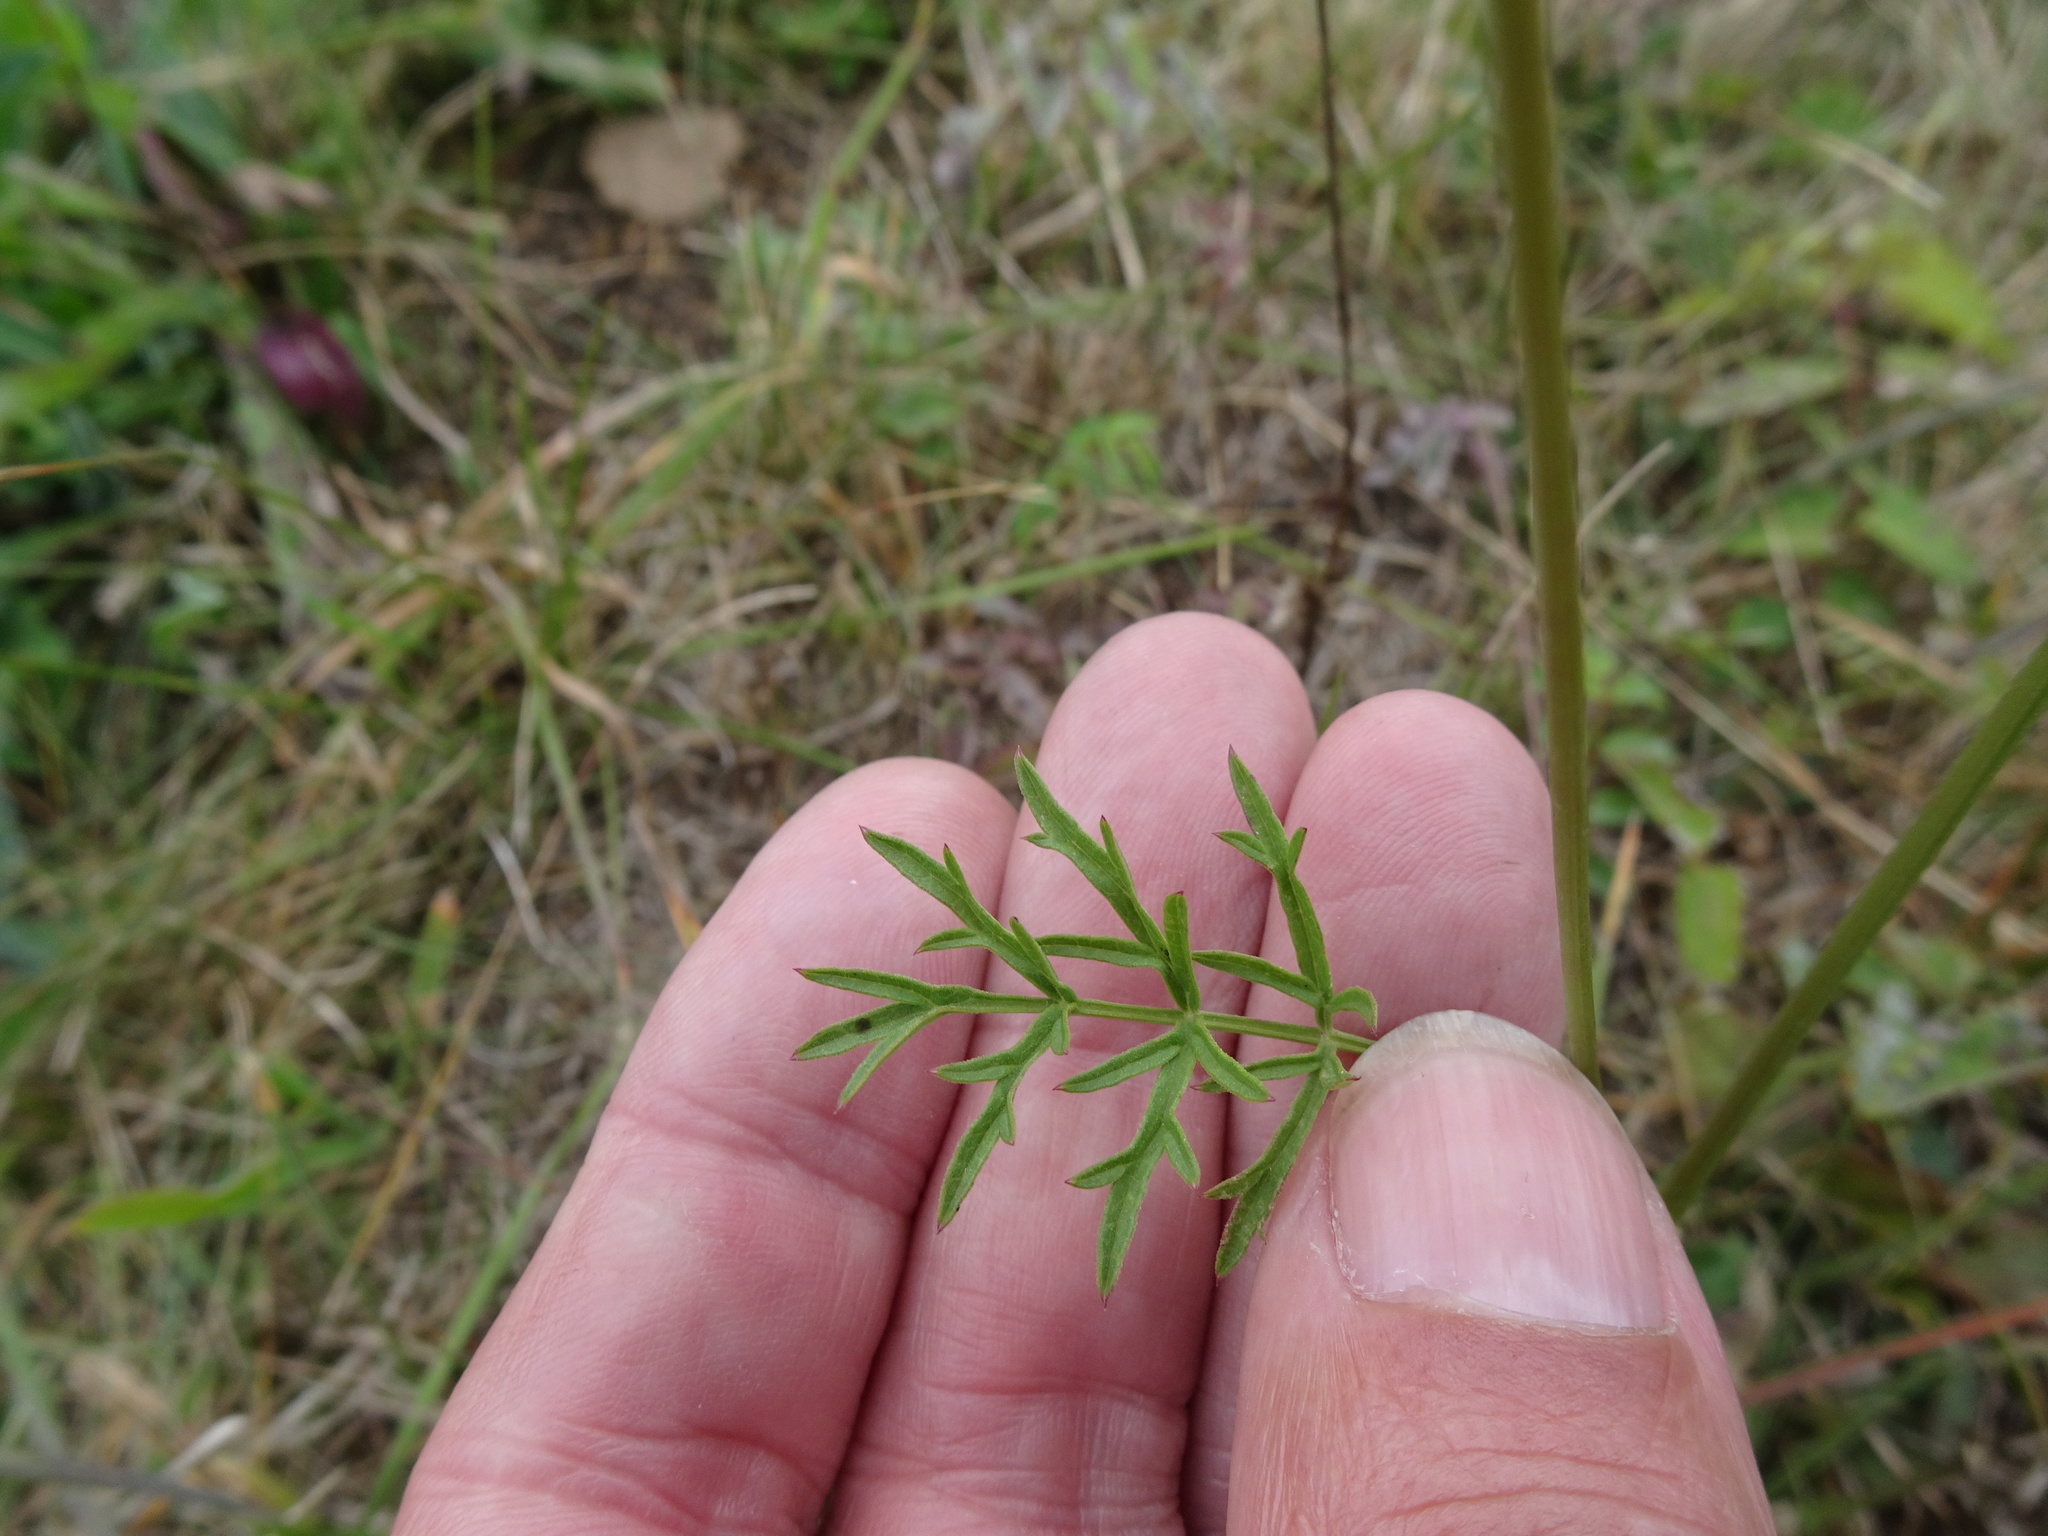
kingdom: Plantae
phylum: Tracheophyta
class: Magnoliopsida
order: Apiales
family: Apiaceae
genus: Pimpinella
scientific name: Pimpinella saxifraga
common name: Burnet-saxifrage
